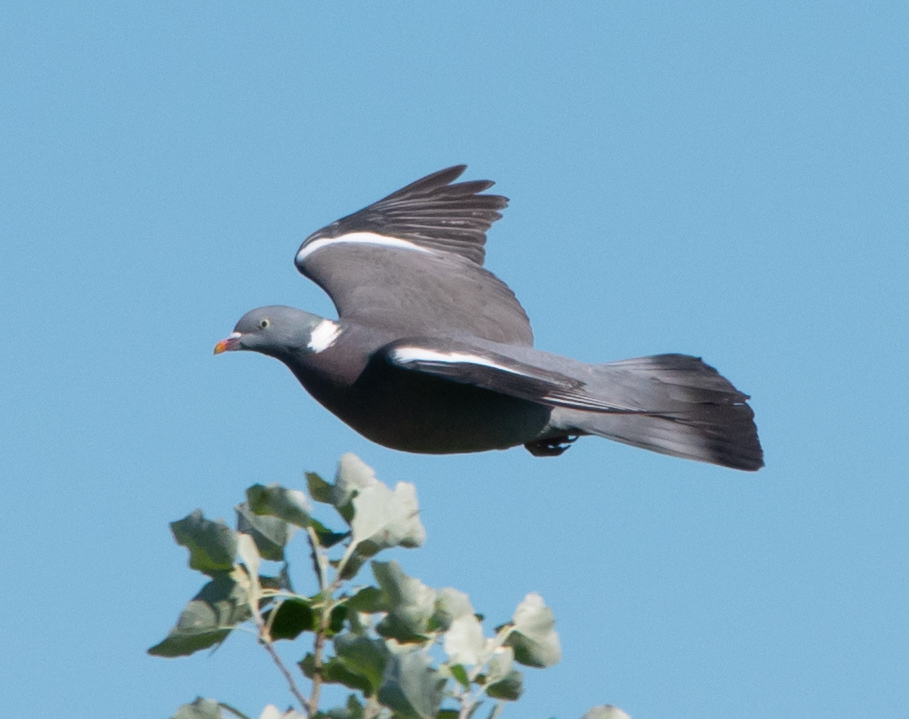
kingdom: Animalia
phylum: Chordata
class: Aves
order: Columbiformes
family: Columbidae
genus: Columba
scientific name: Columba palumbus
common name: Common wood pigeon
